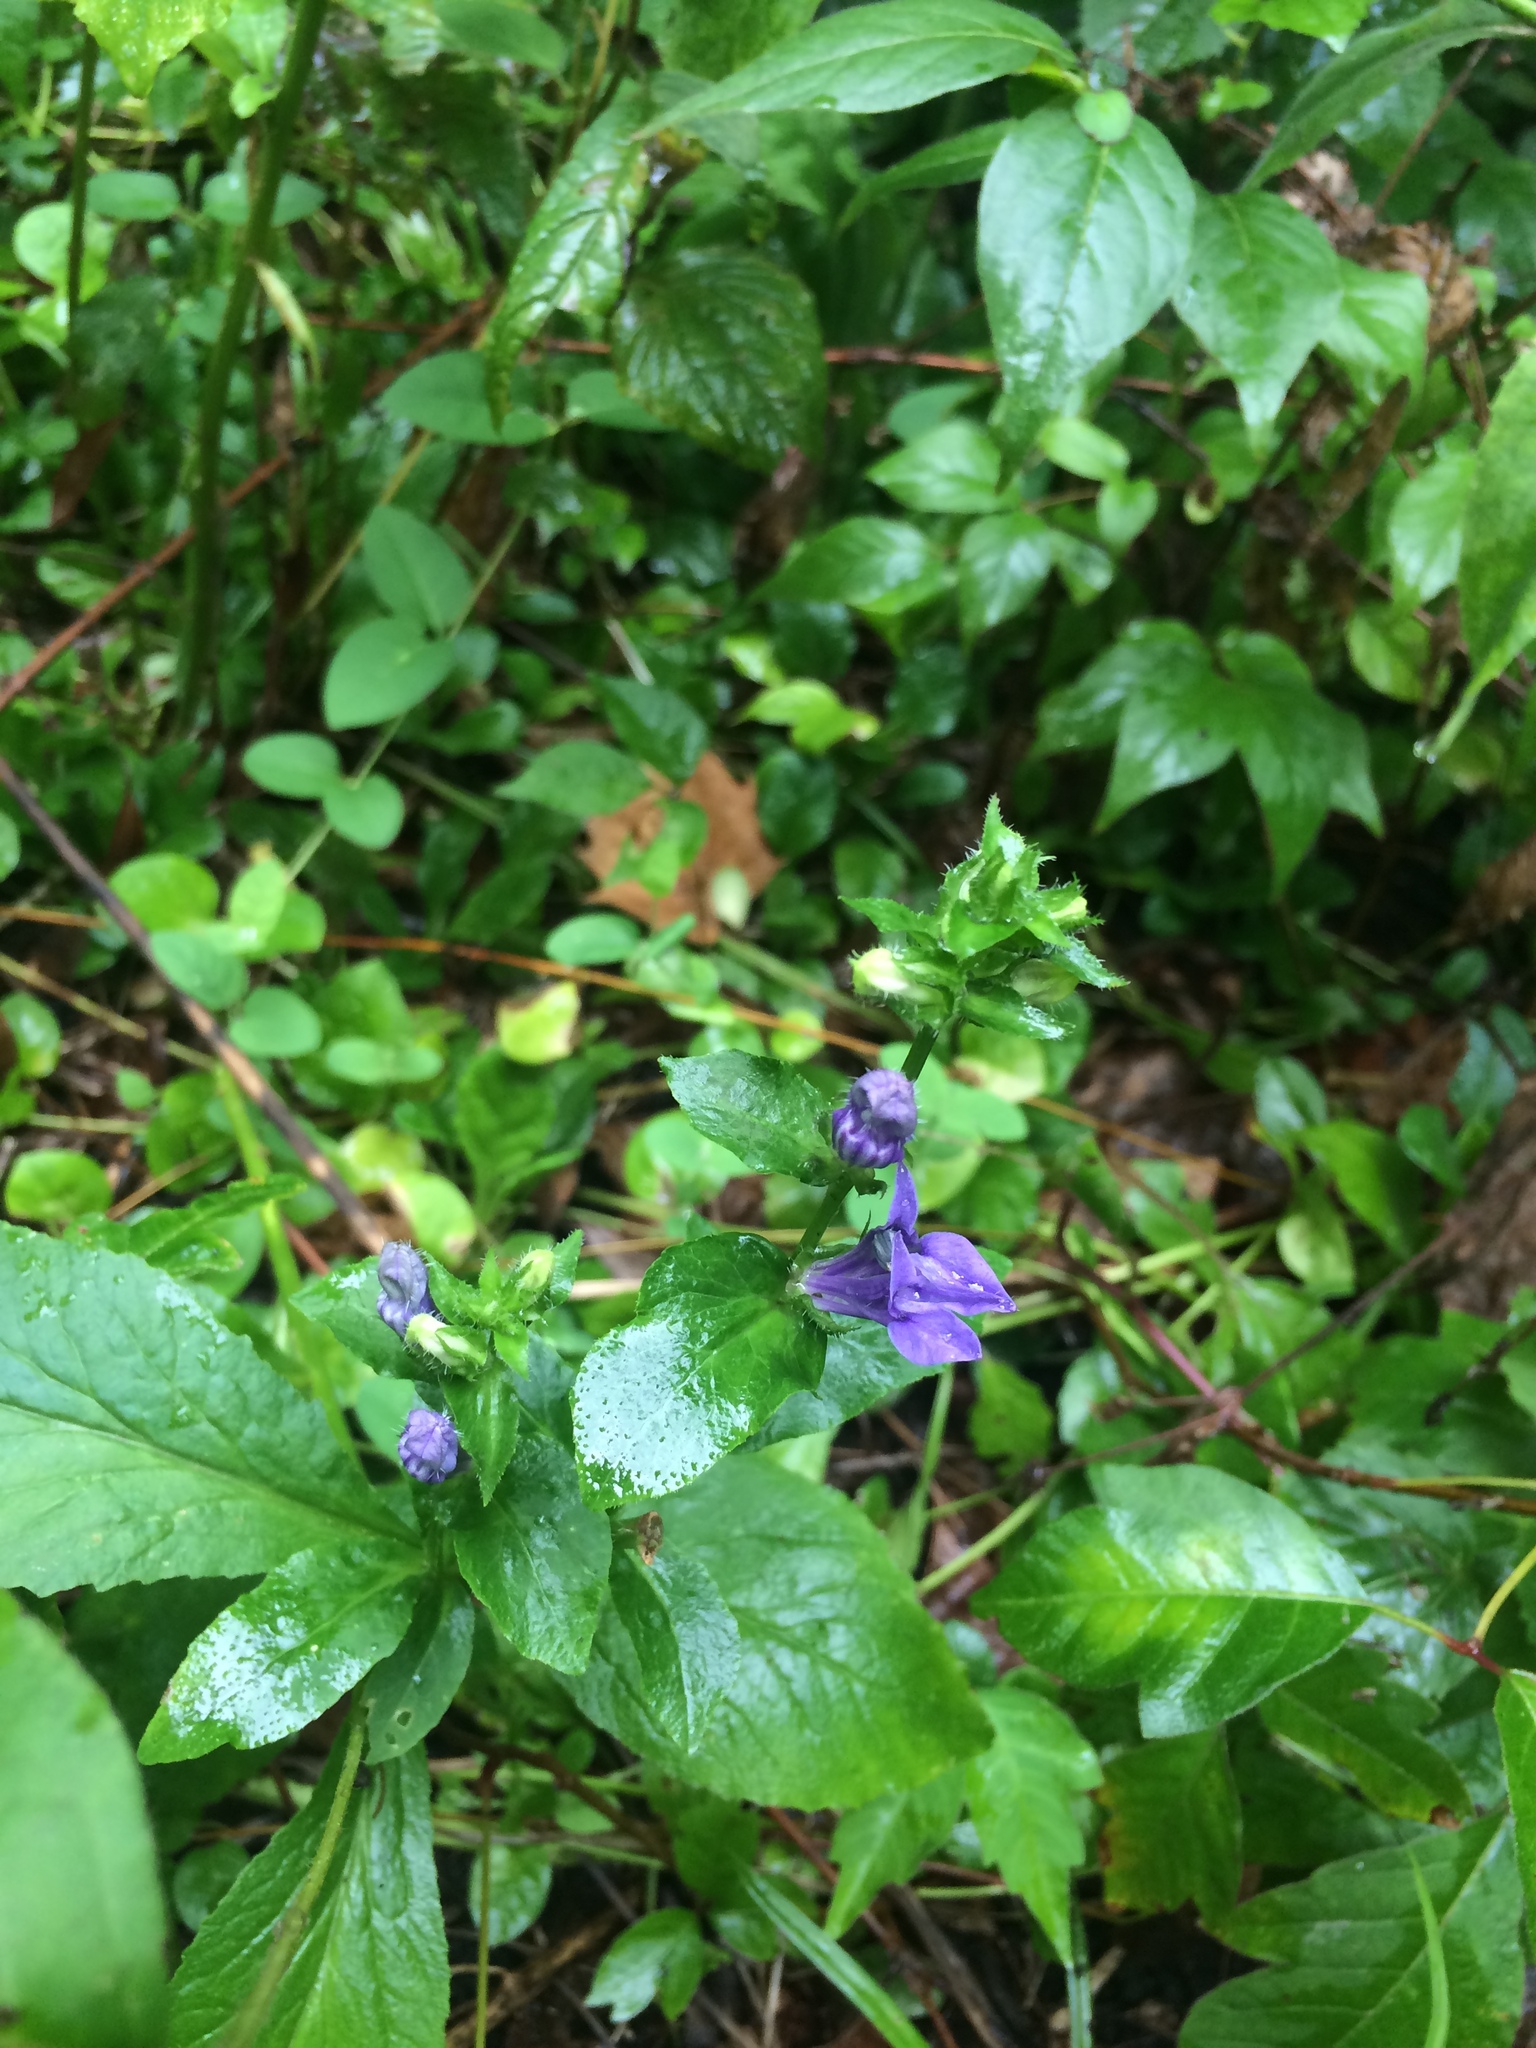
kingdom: Plantae
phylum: Tracheophyta
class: Magnoliopsida
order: Asterales
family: Campanulaceae
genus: Lobelia
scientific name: Lobelia siphilitica
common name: Great lobelia
